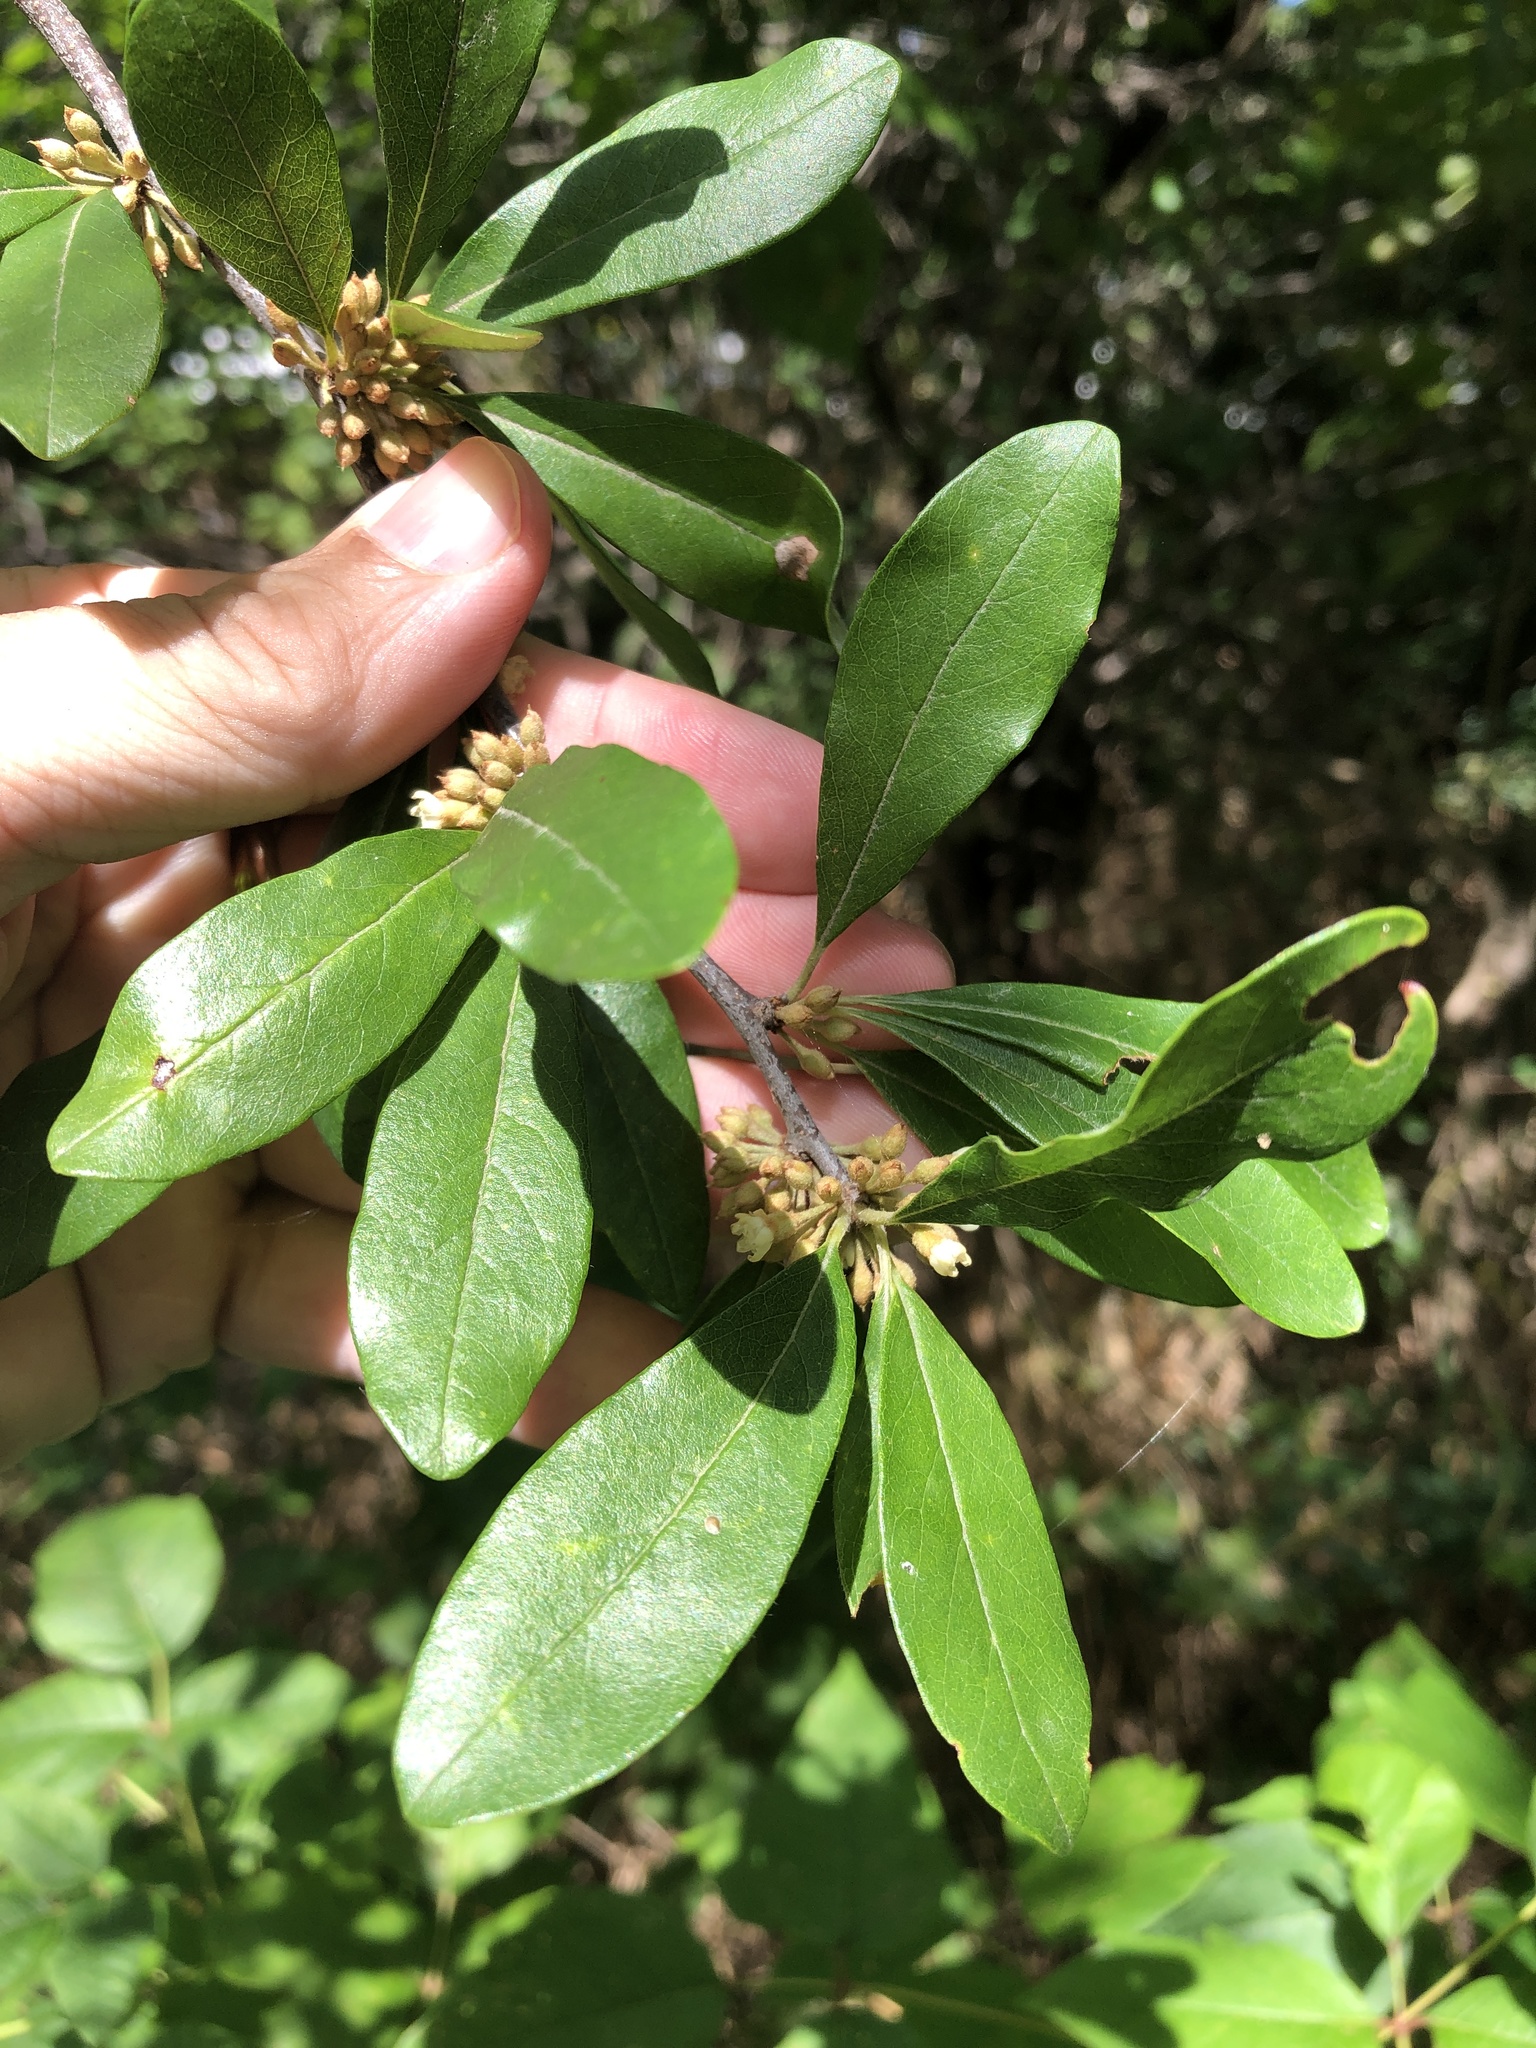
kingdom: Plantae
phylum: Tracheophyta
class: Magnoliopsida
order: Ericales
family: Sapotaceae
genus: Sideroxylon
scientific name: Sideroxylon lanuginosum
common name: Chittamwood
